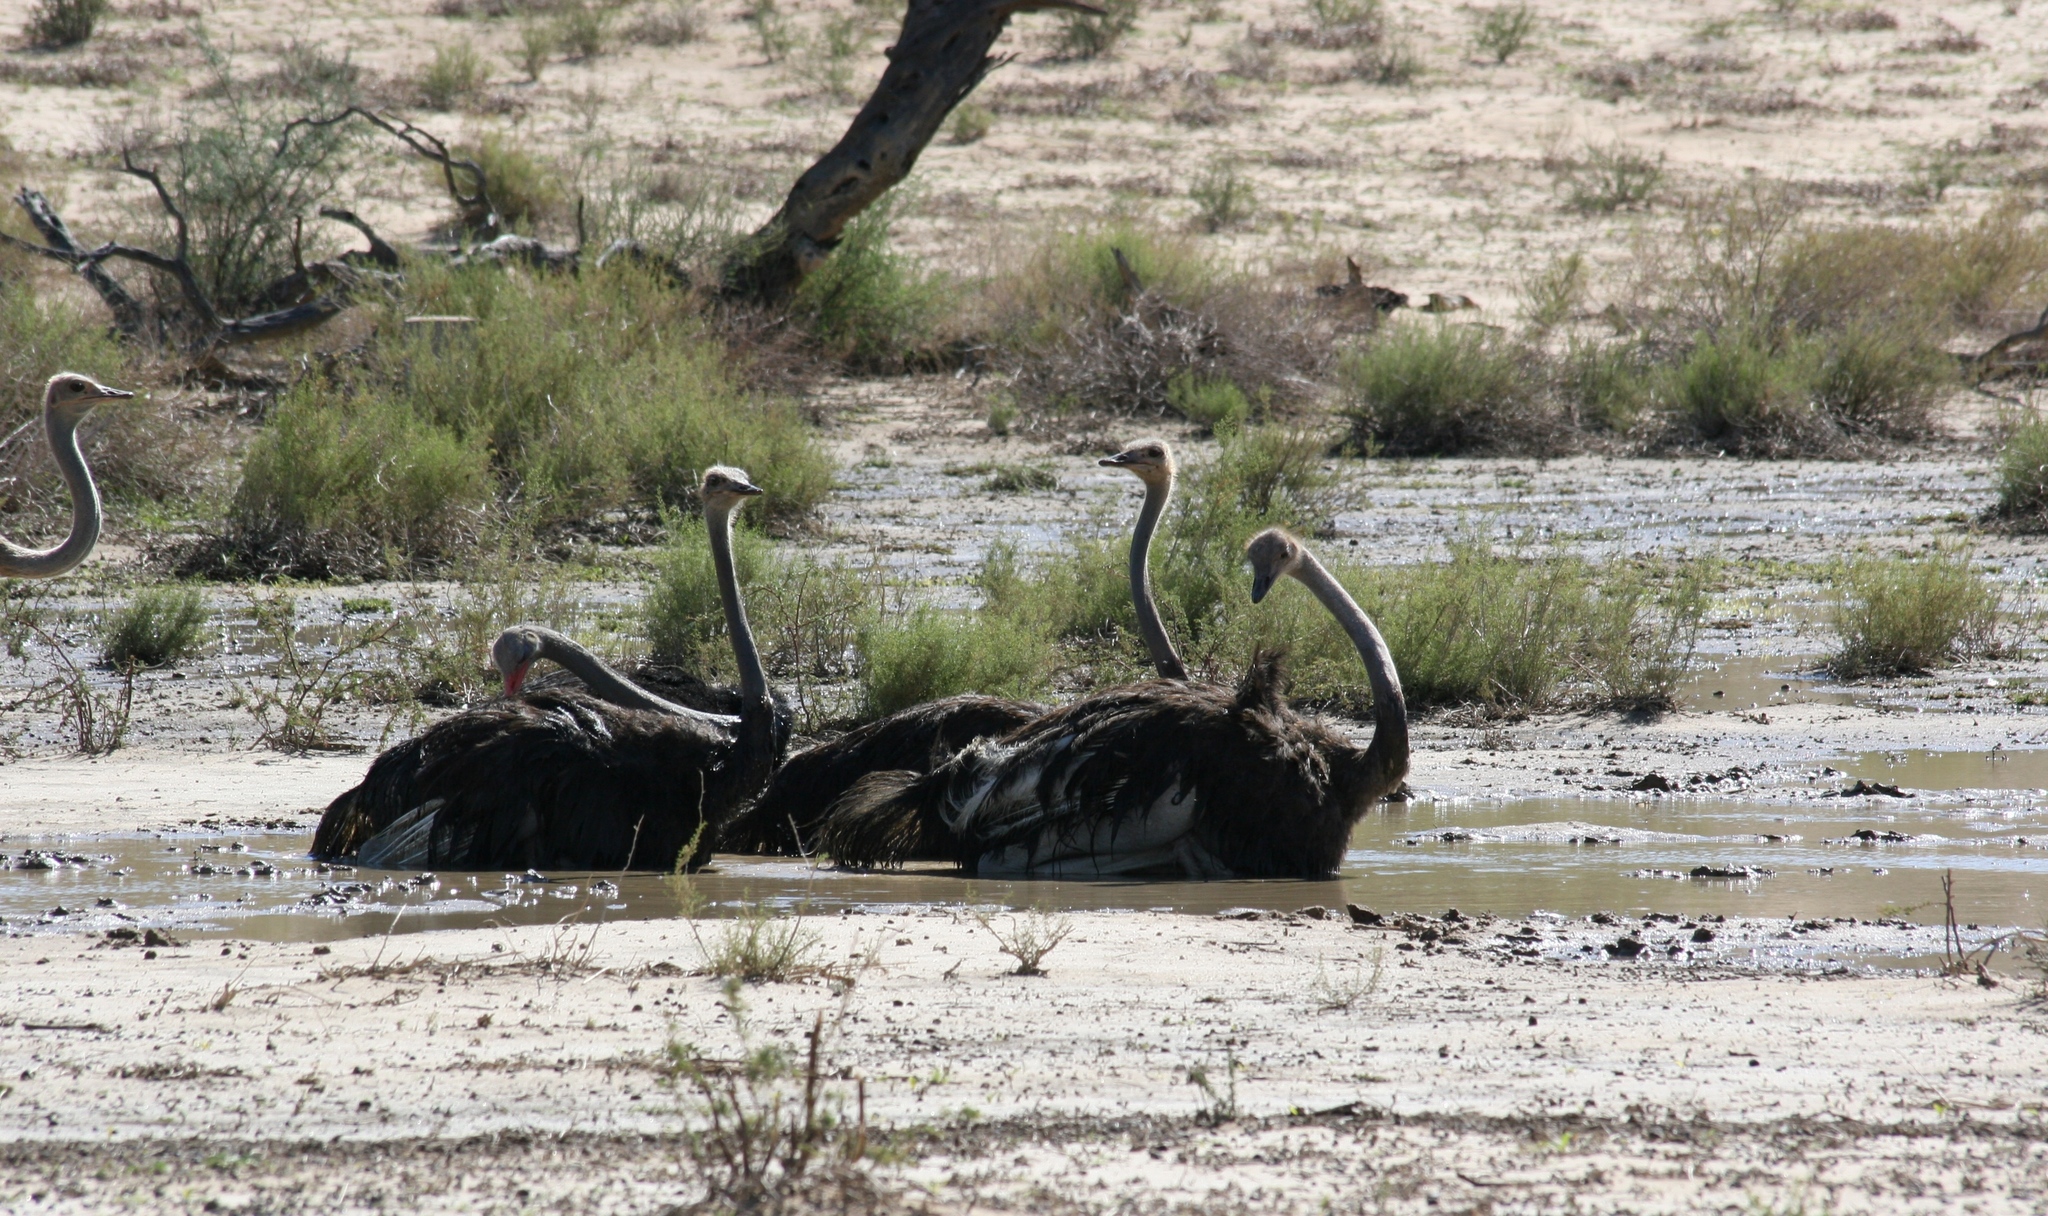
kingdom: Animalia
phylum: Chordata
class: Aves
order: Struthioniformes
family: Struthionidae
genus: Struthio
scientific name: Struthio camelus
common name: Common ostrich
